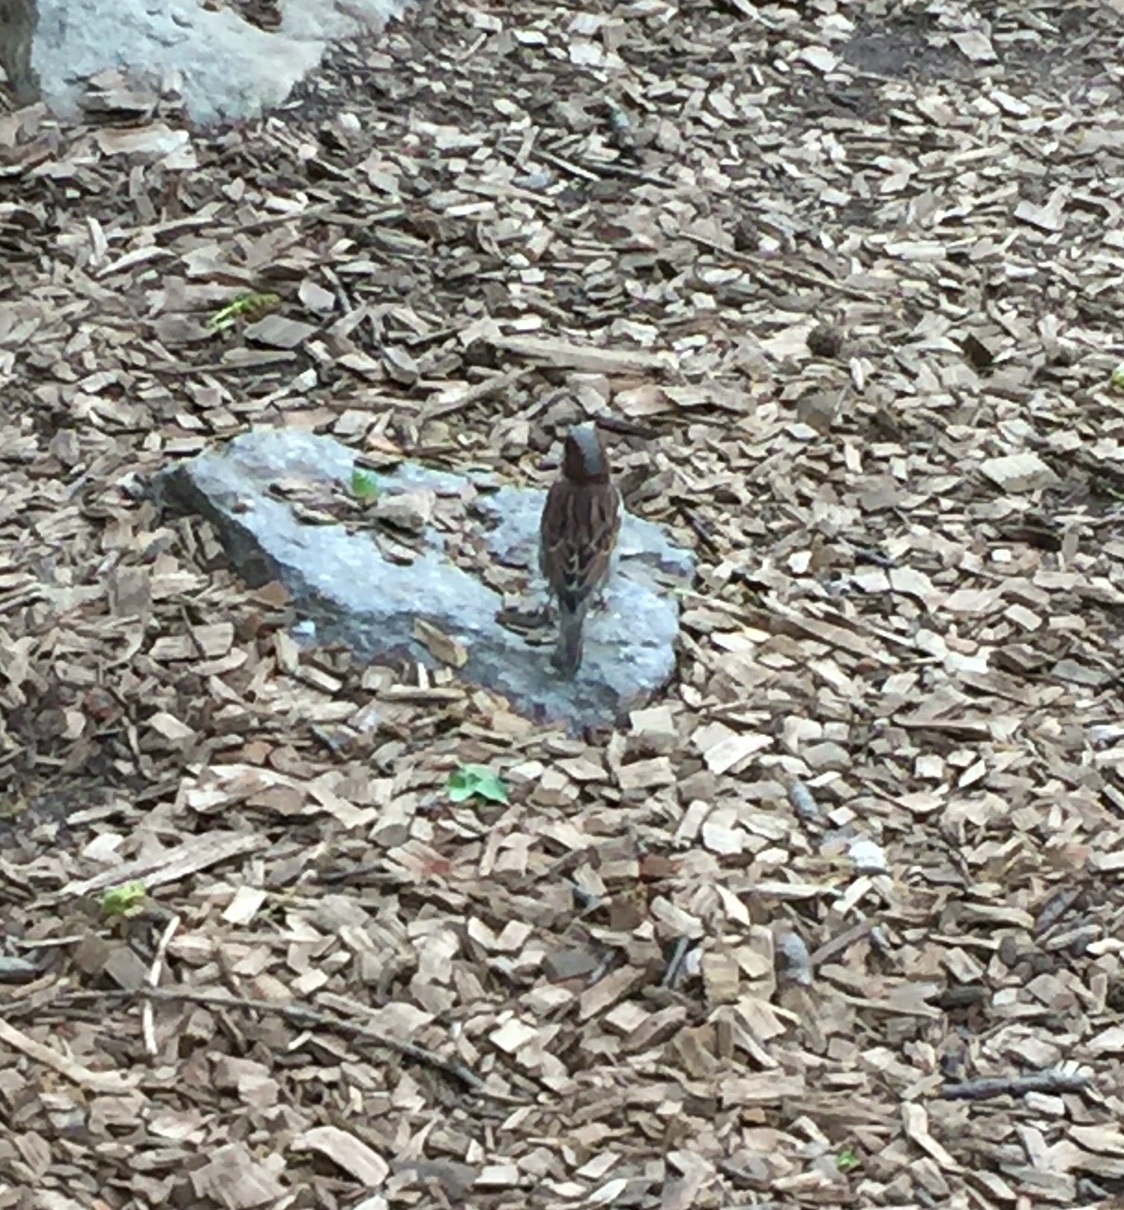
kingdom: Animalia
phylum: Chordata
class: Aves
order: Passeriformes
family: Passeridae
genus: Passer
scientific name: Passer domesticus
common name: House sparrow
